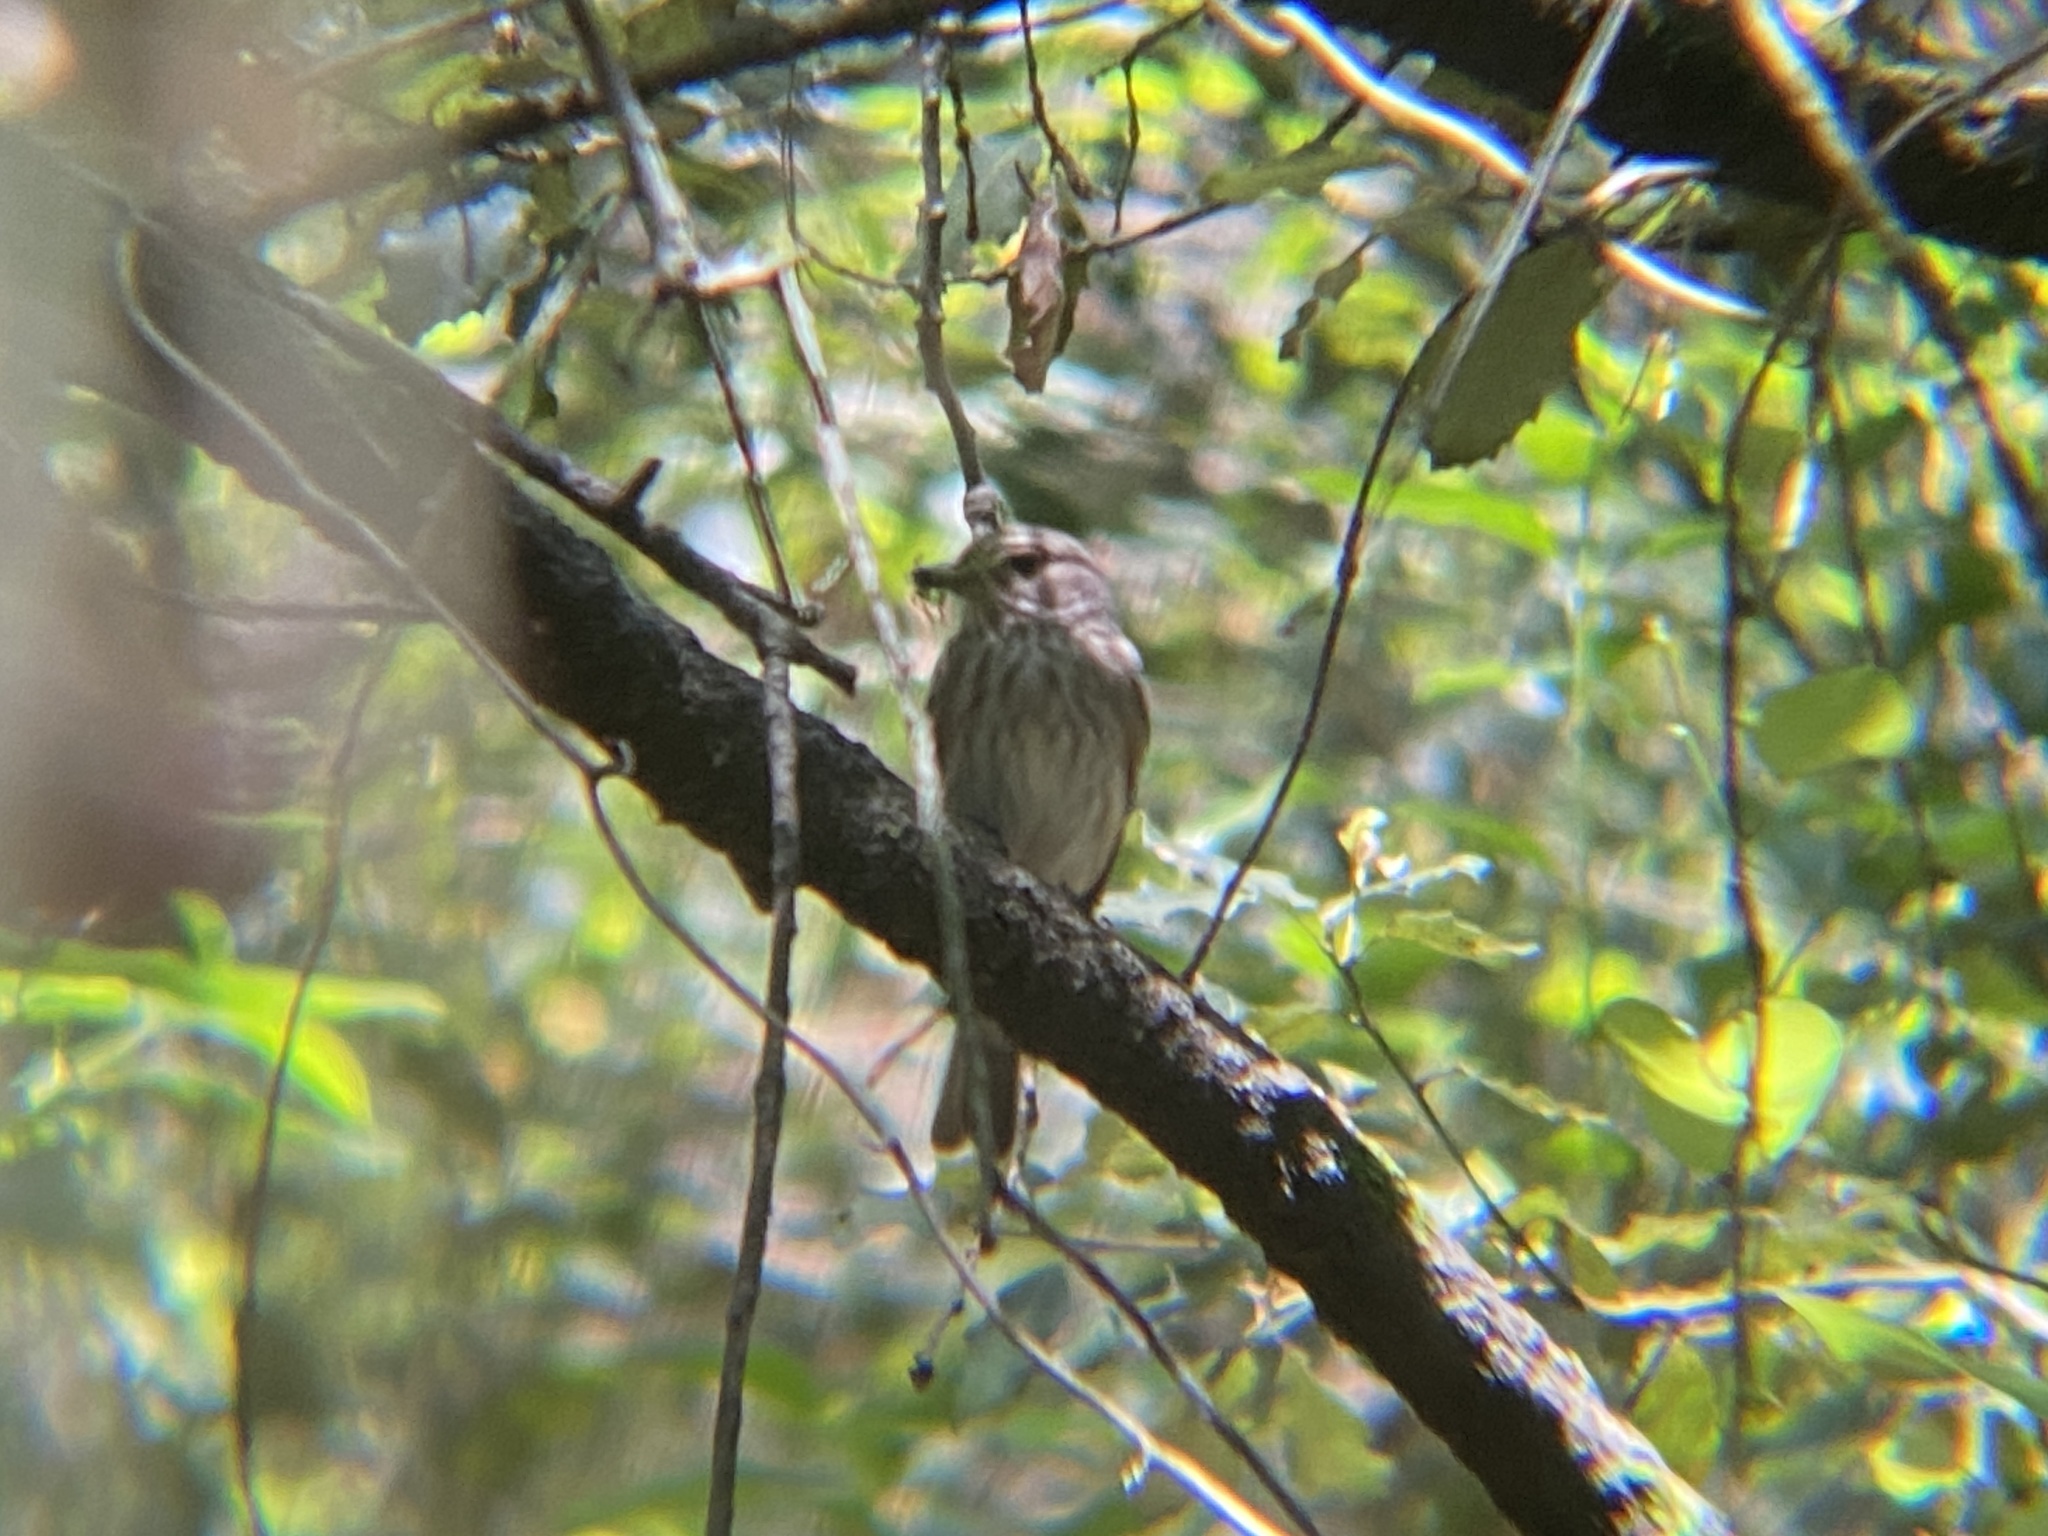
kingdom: Animalia
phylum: Chordata
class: Aves
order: Passeriformes
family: Muscicapidae
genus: Muscicapa
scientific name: Muscicapa striata
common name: Spotted flycatcher
